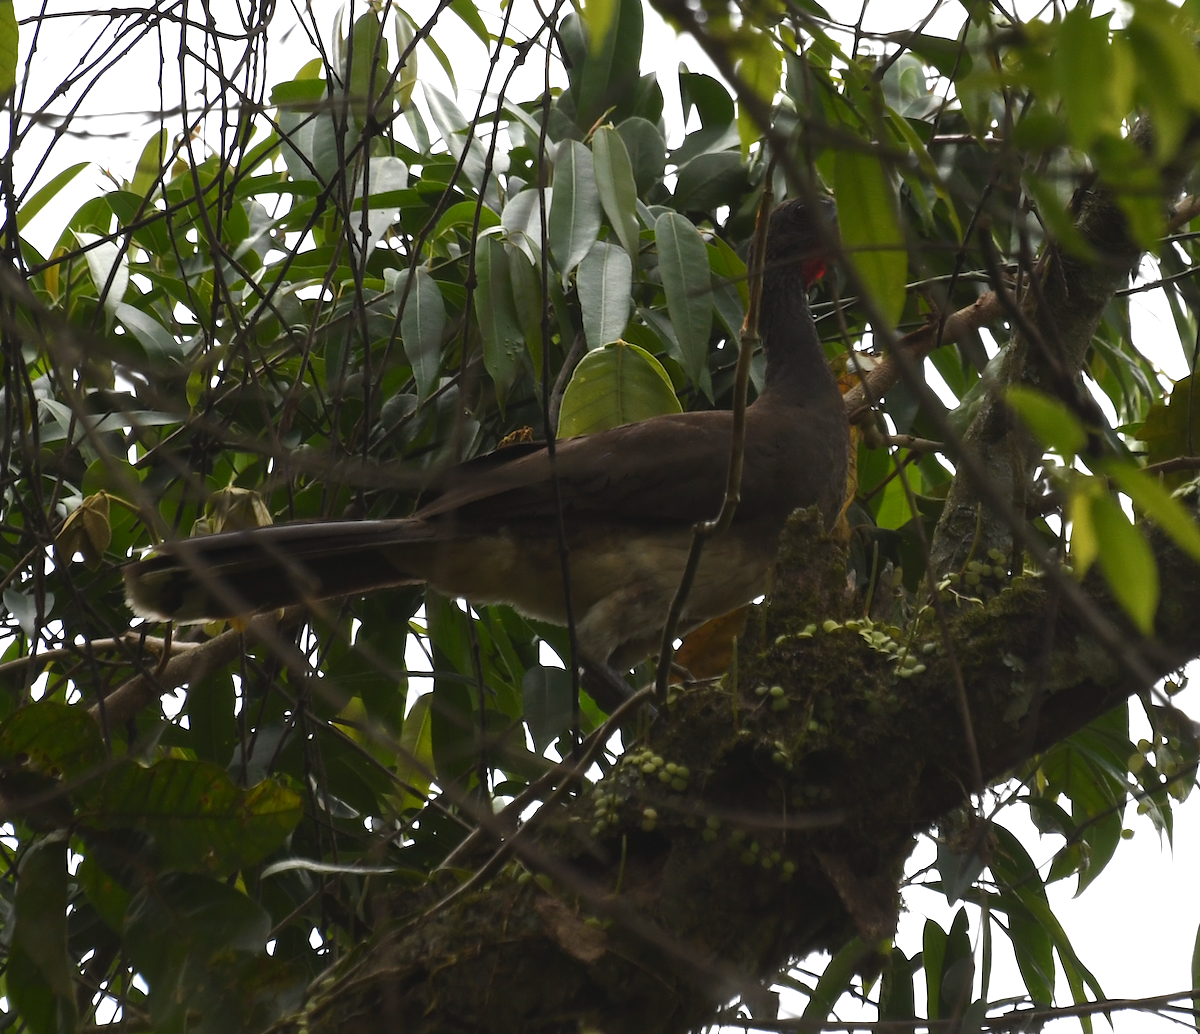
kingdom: Animalia
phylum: Chordata
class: Aves
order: Galliformes
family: Cracidae
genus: Ortalis
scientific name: Ortalis leucogastra
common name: White-bellied chachalaca
